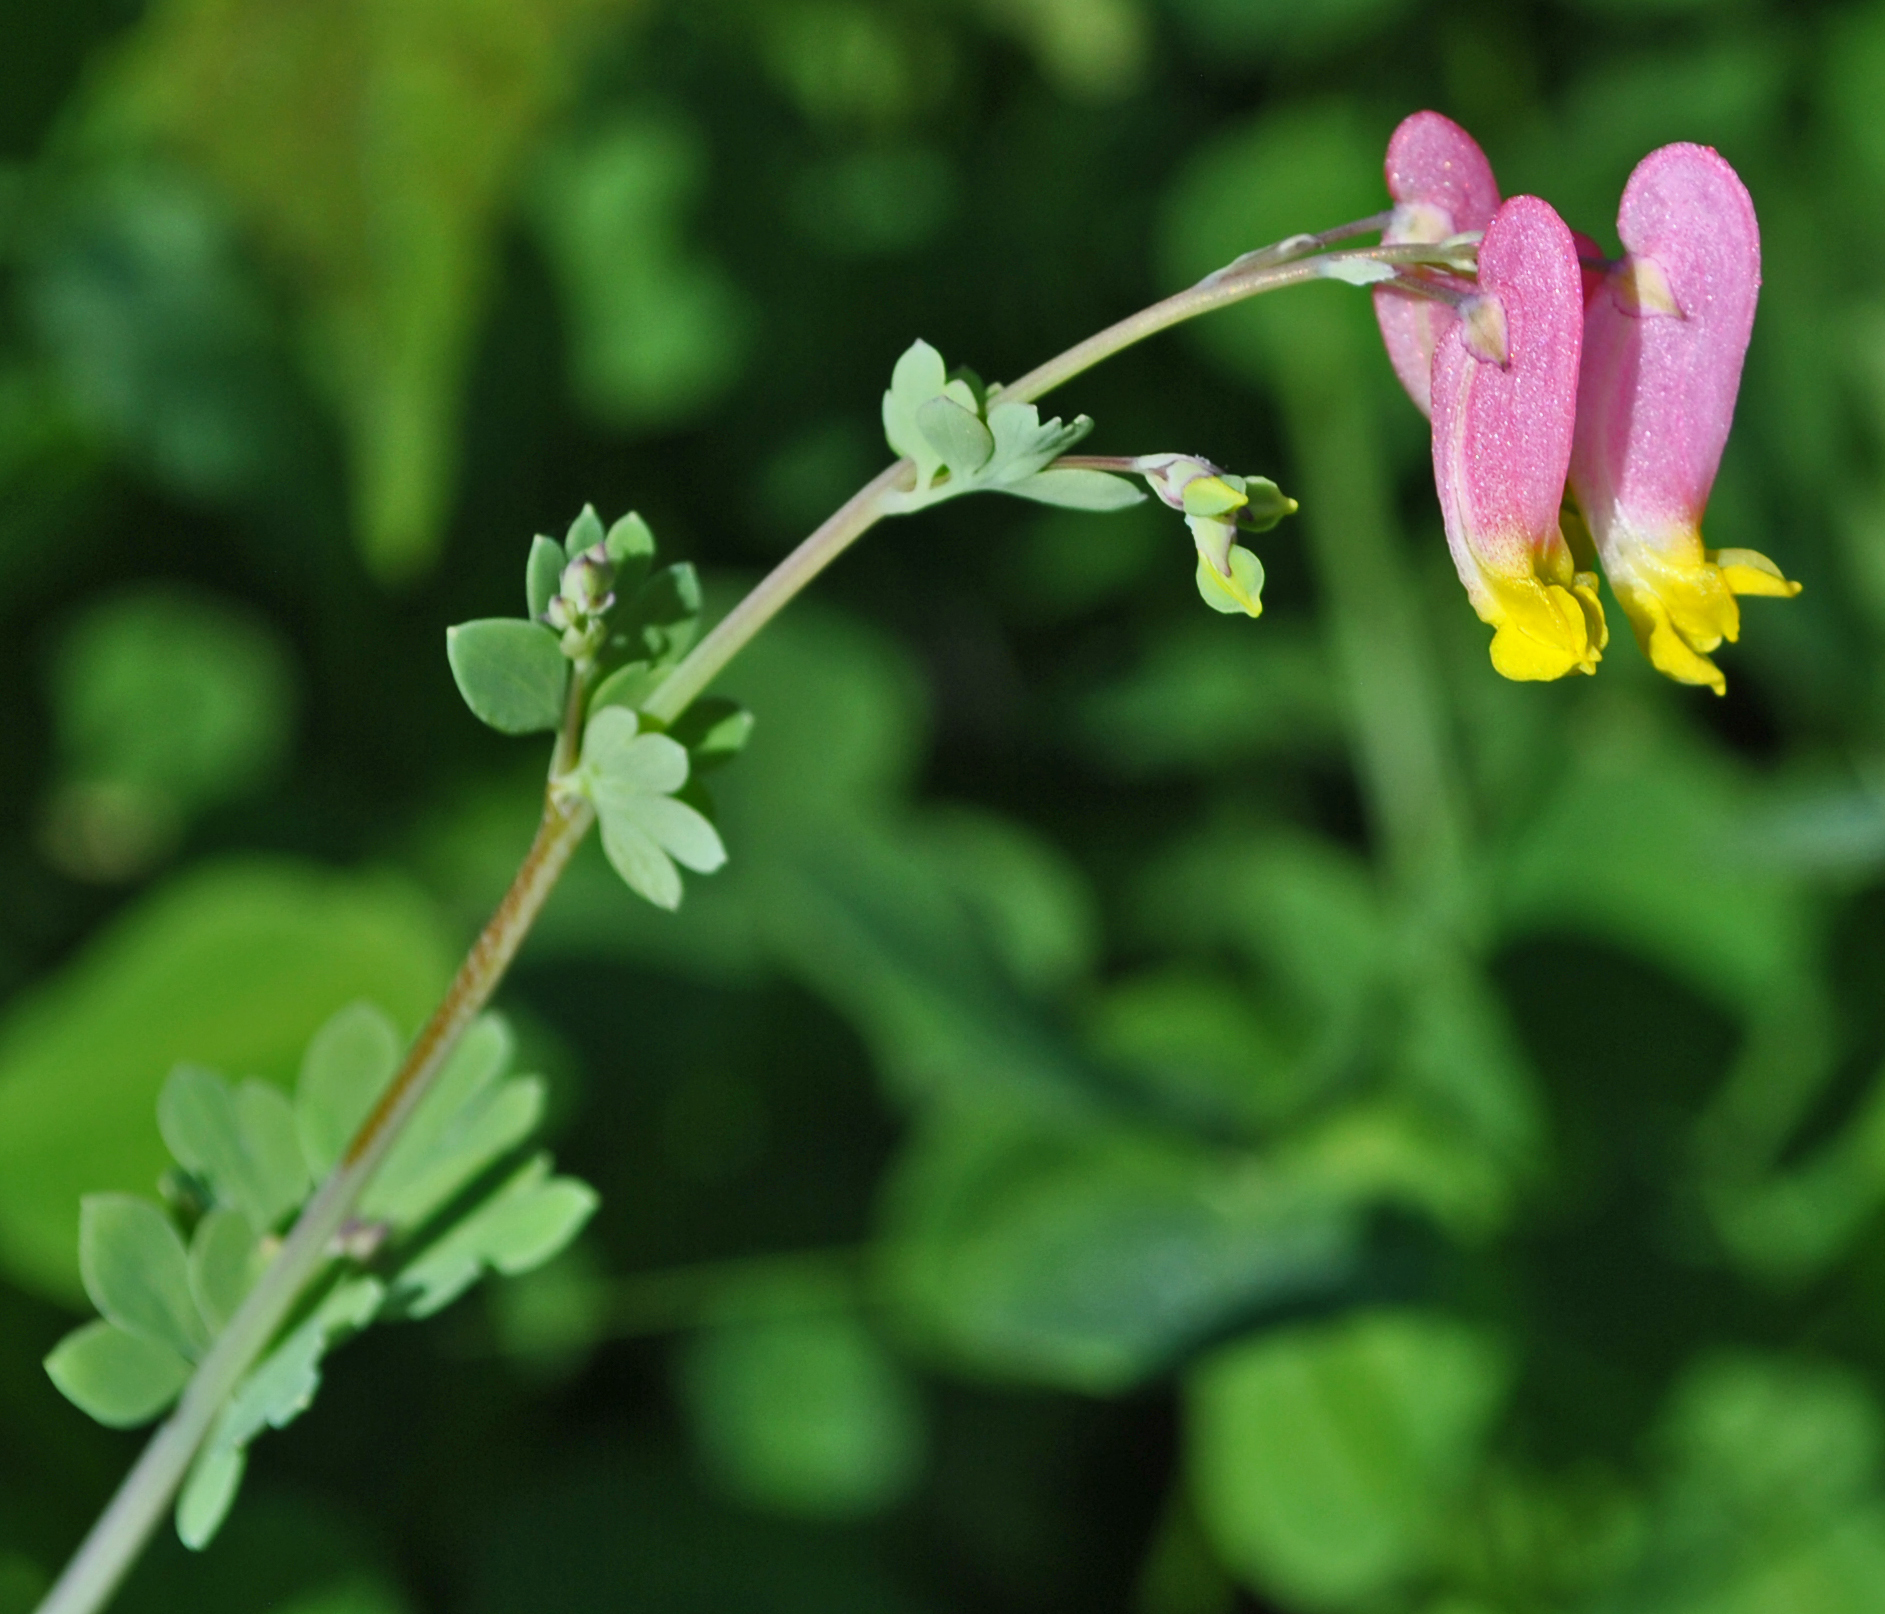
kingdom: Plantae
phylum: Tracheophyta
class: Magnoliopsida
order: Ranunculales
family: Papaveraceae
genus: Capnoides
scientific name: Capnoides sempervirens
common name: Rock harlequin
